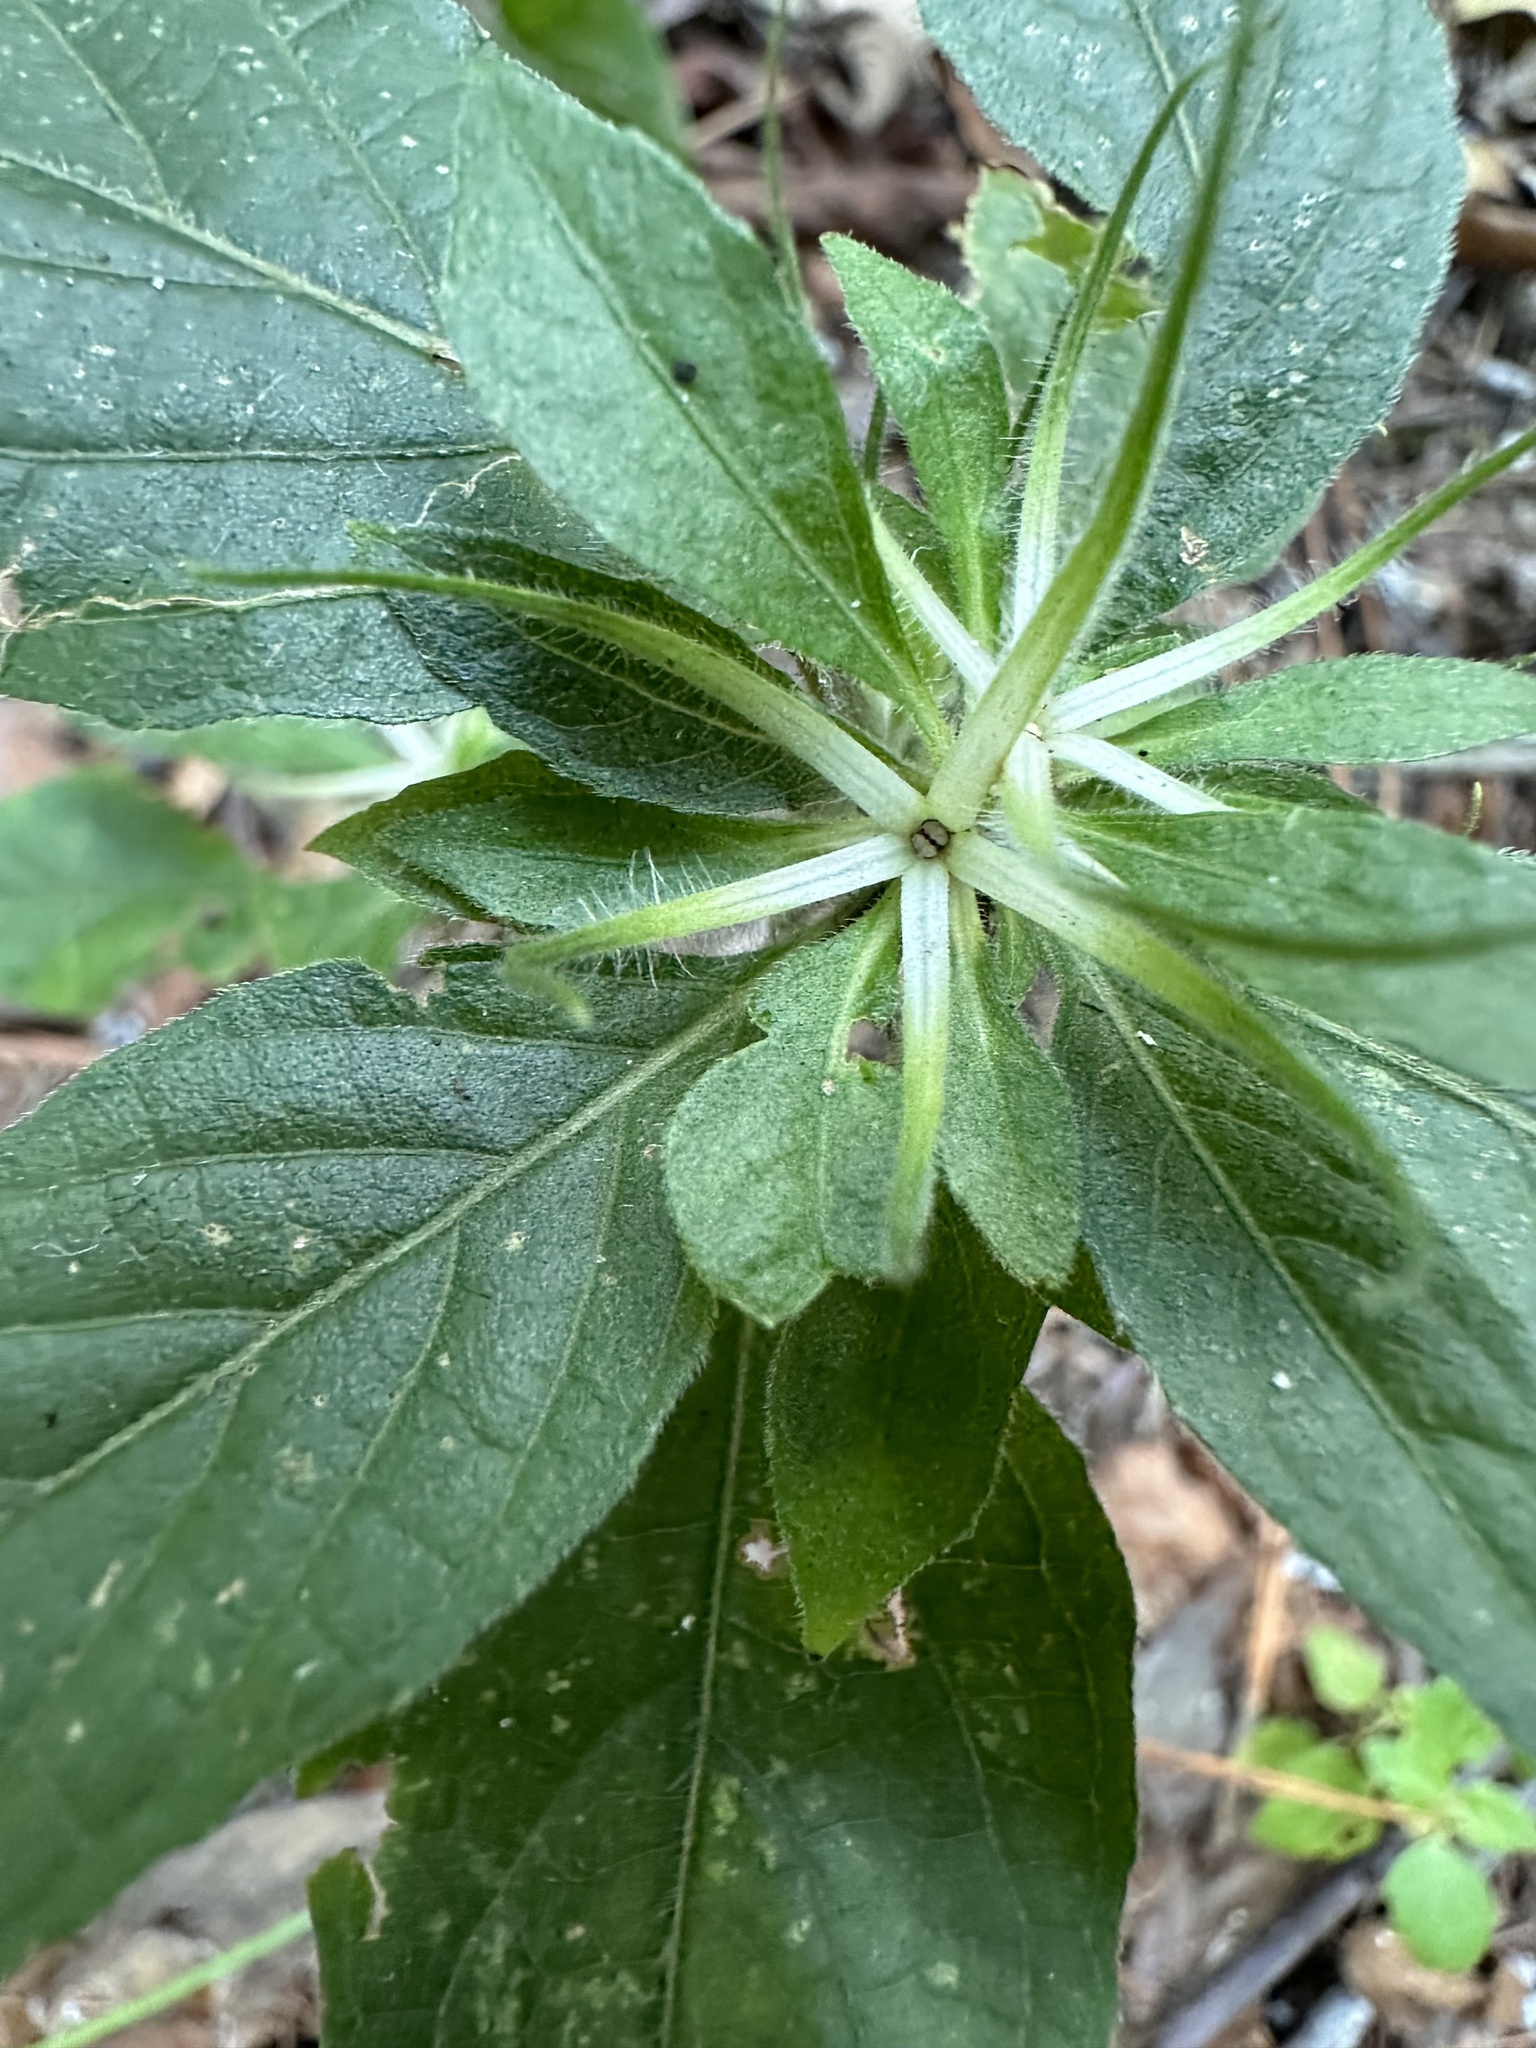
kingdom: Plantae
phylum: Tracheophyta
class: Magnoliopsida
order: Lamiales
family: Acanthaceae
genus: Ruellia
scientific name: Ruellia caroliniensis
